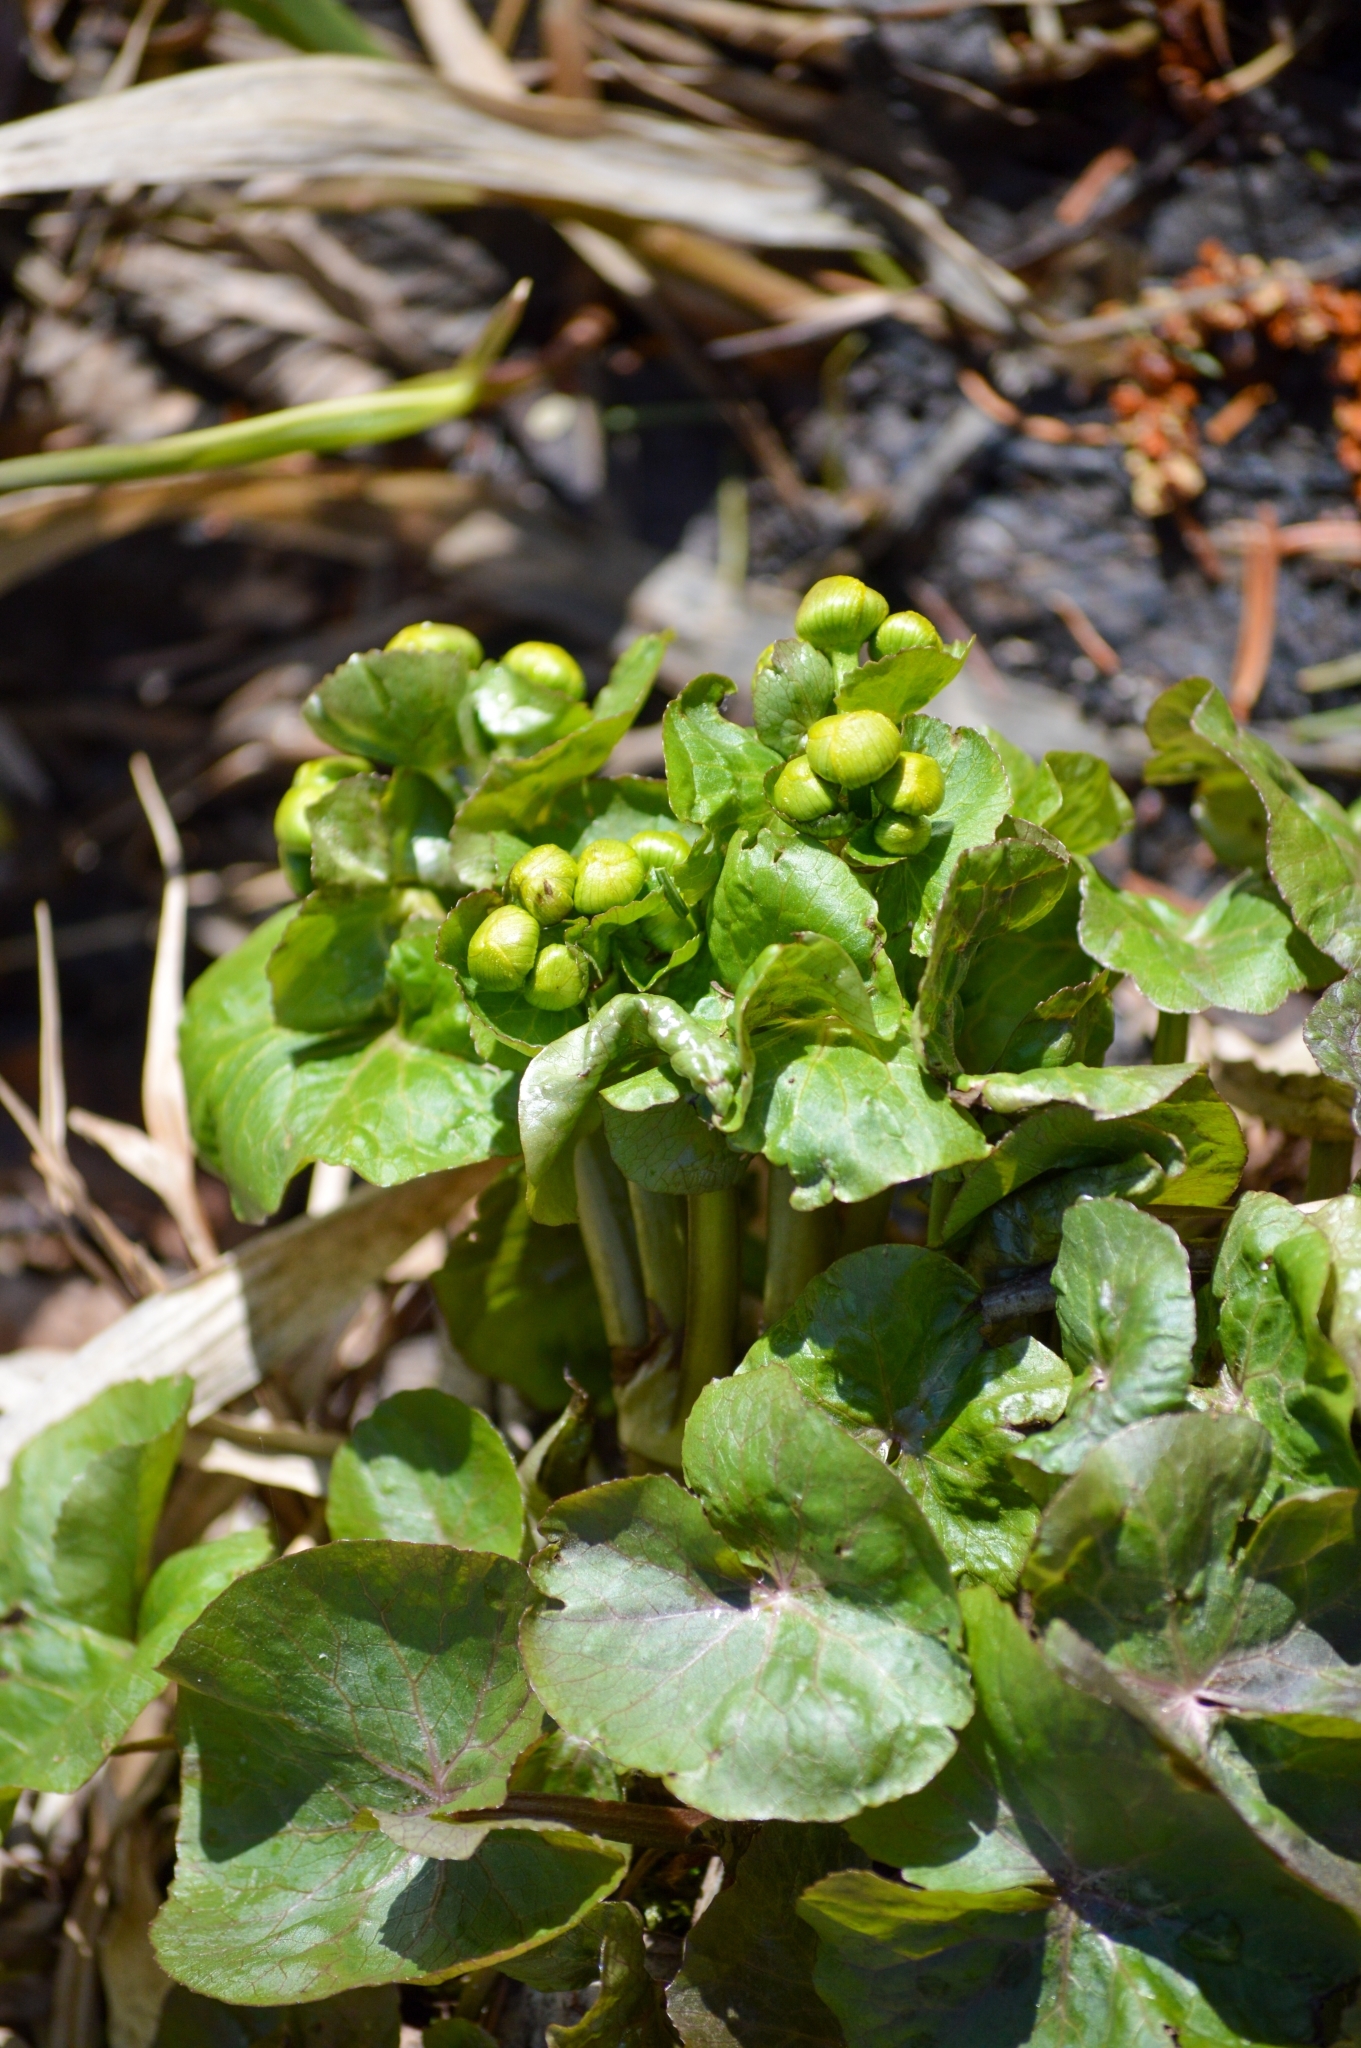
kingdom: Plantae
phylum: Tracheophyta
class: Magnoliopsida
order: Ranunculales
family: Ranunculaceae
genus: Caltha
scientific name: Caltha palustris
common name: Marsh marigold
